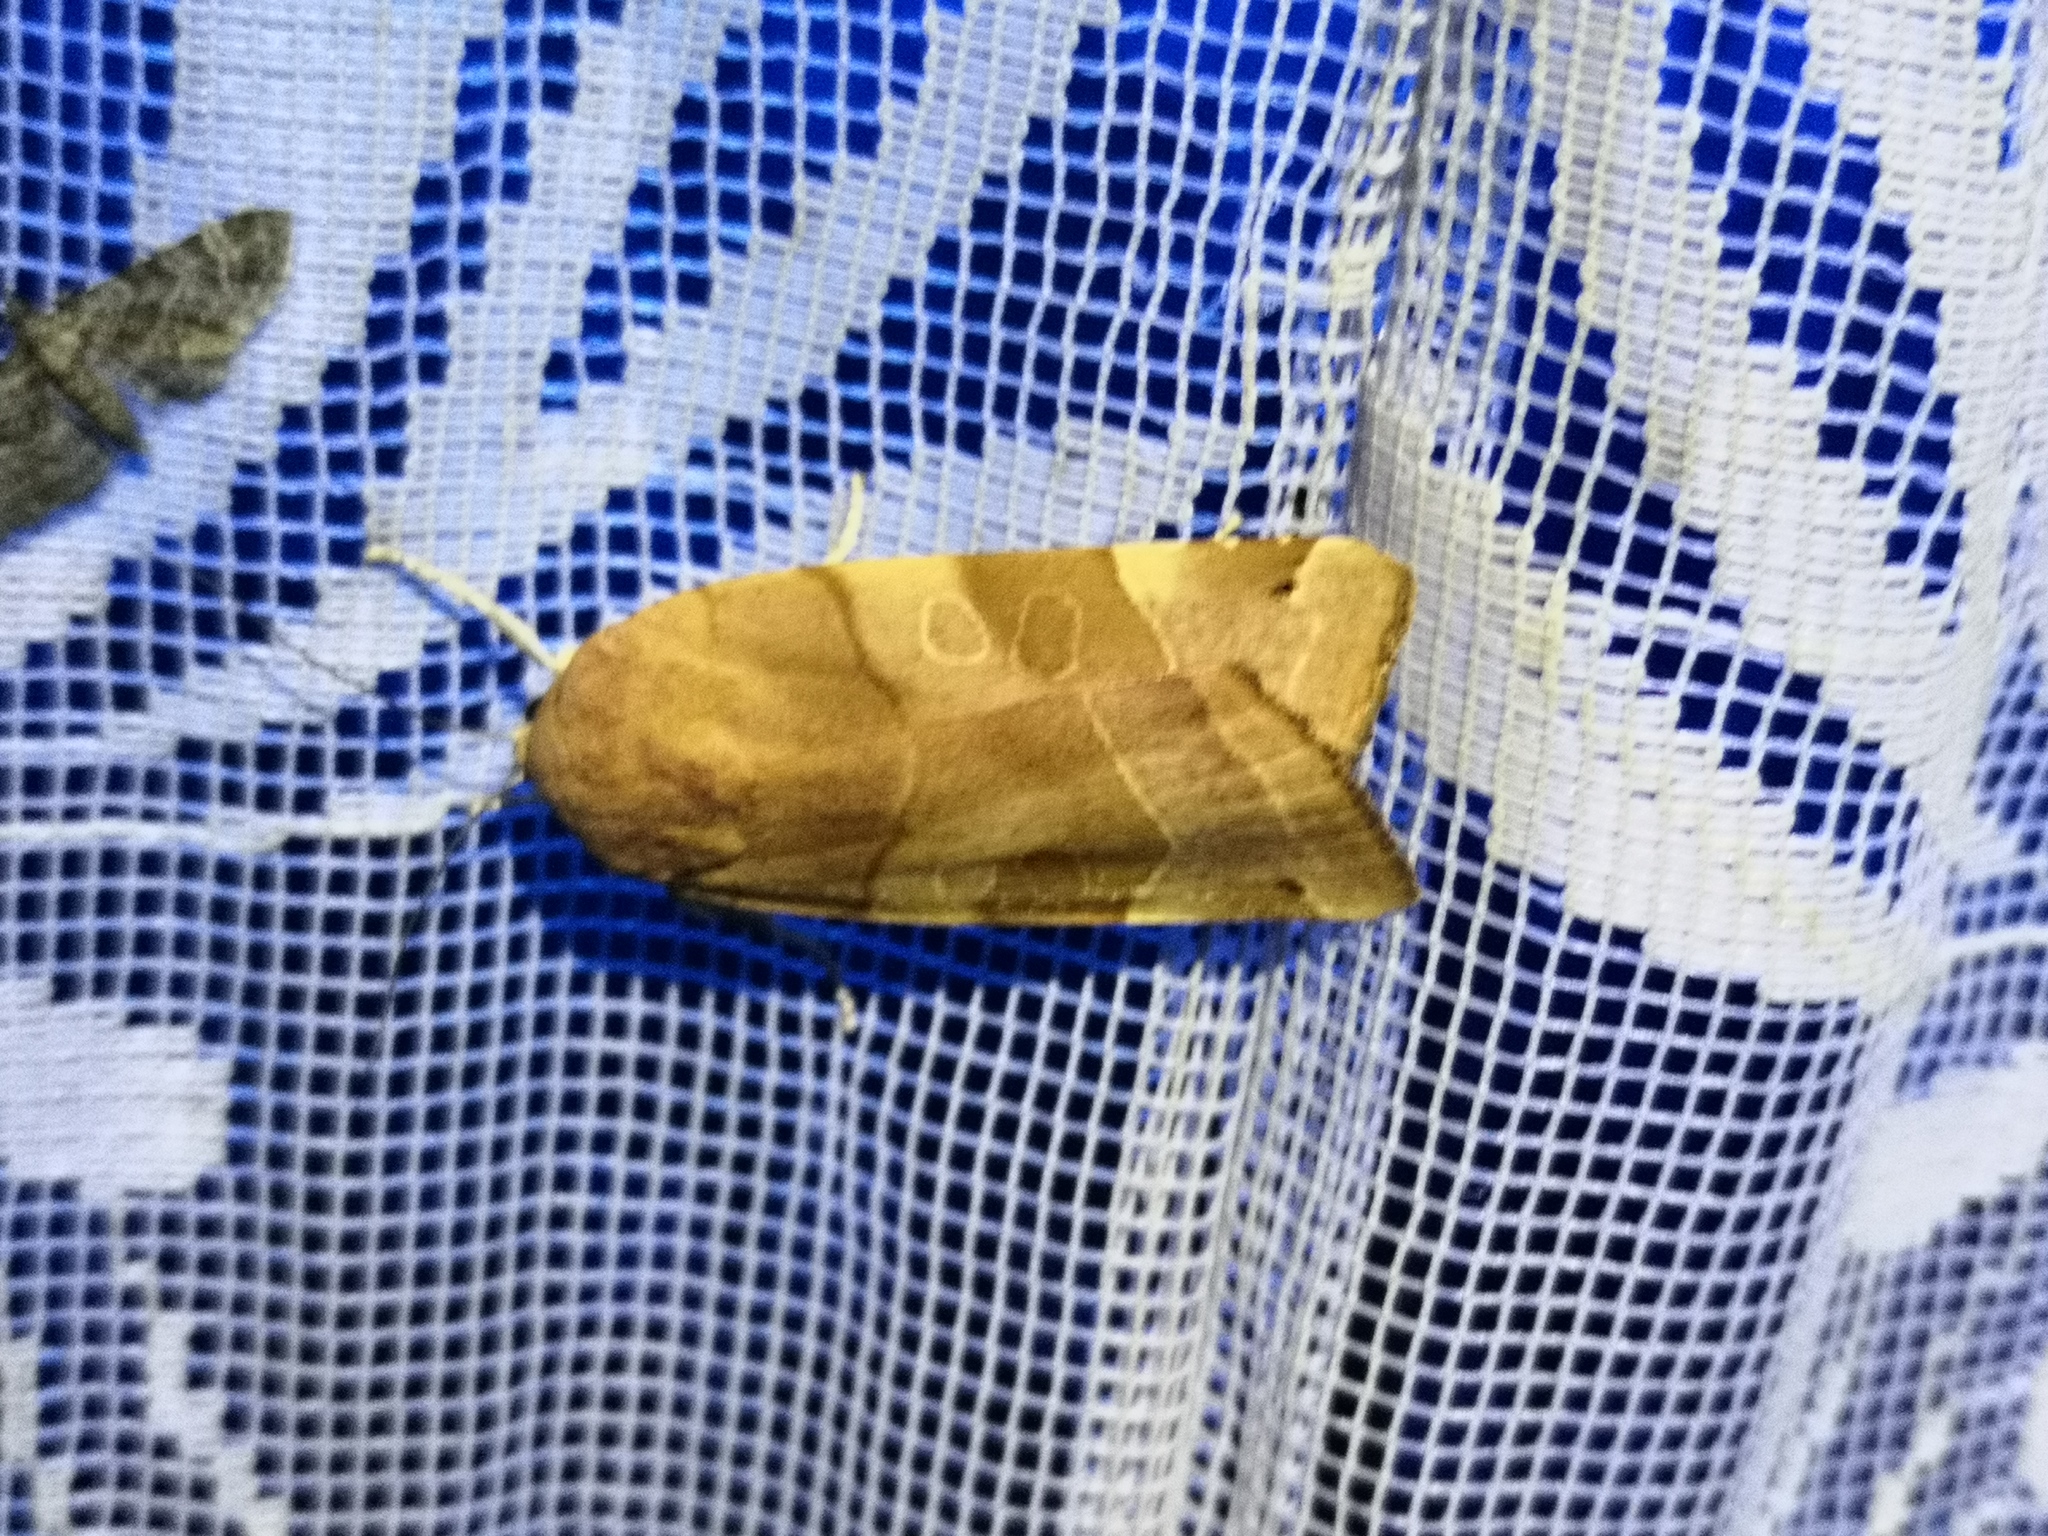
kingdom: Animalia
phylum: Arthropoda
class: Insecta
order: Lepidoptera
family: Noctuidae
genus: Noctua
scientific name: Noctua fimbriata
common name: Broad-bordered yellow underwing
